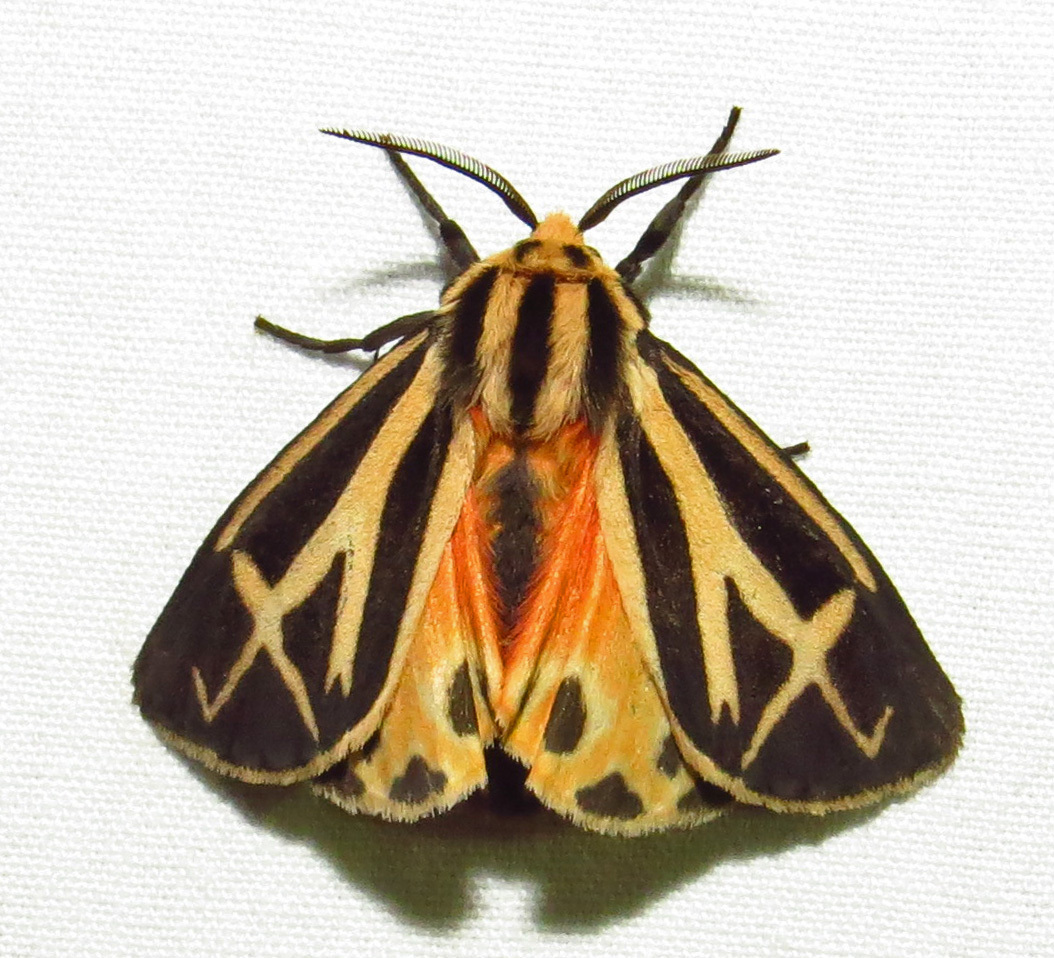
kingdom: Animalia
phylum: Arthropoda
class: Insecta
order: Lepidoptera
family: Erebidae
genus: Apantesis
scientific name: Apantesis phalerata
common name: Harnessed tiger moth
